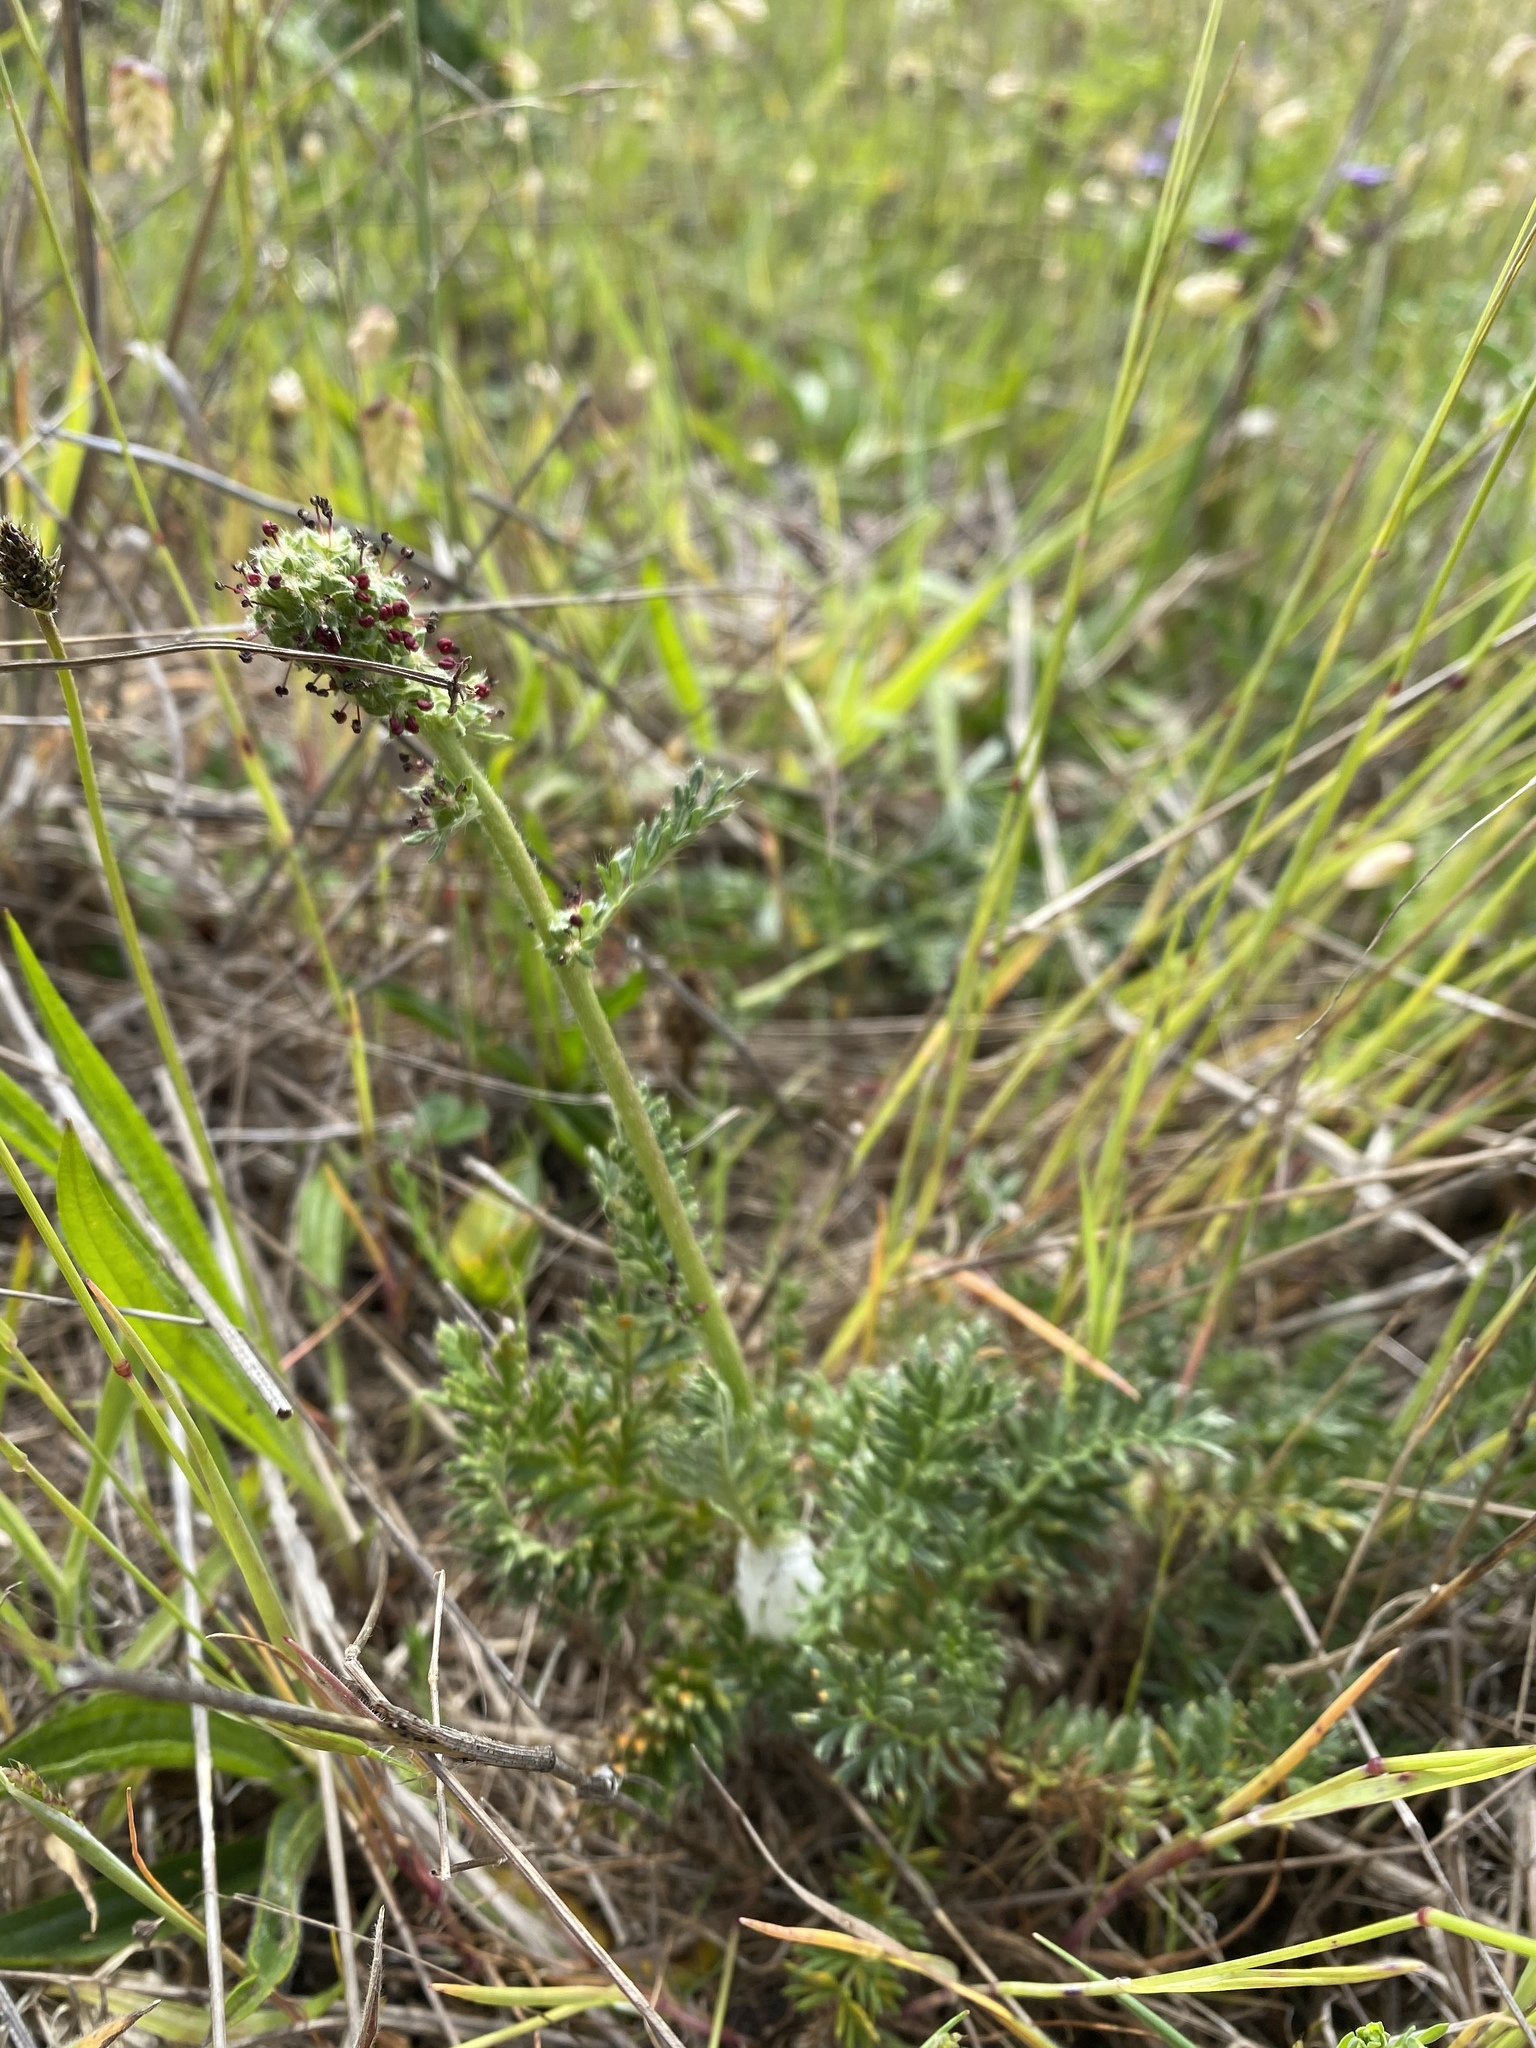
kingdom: Plantae
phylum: Tracheophyta
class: Magnoliopsida
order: Rosales
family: Rosaceae
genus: Acaena
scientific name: Acaena pinnatifida
